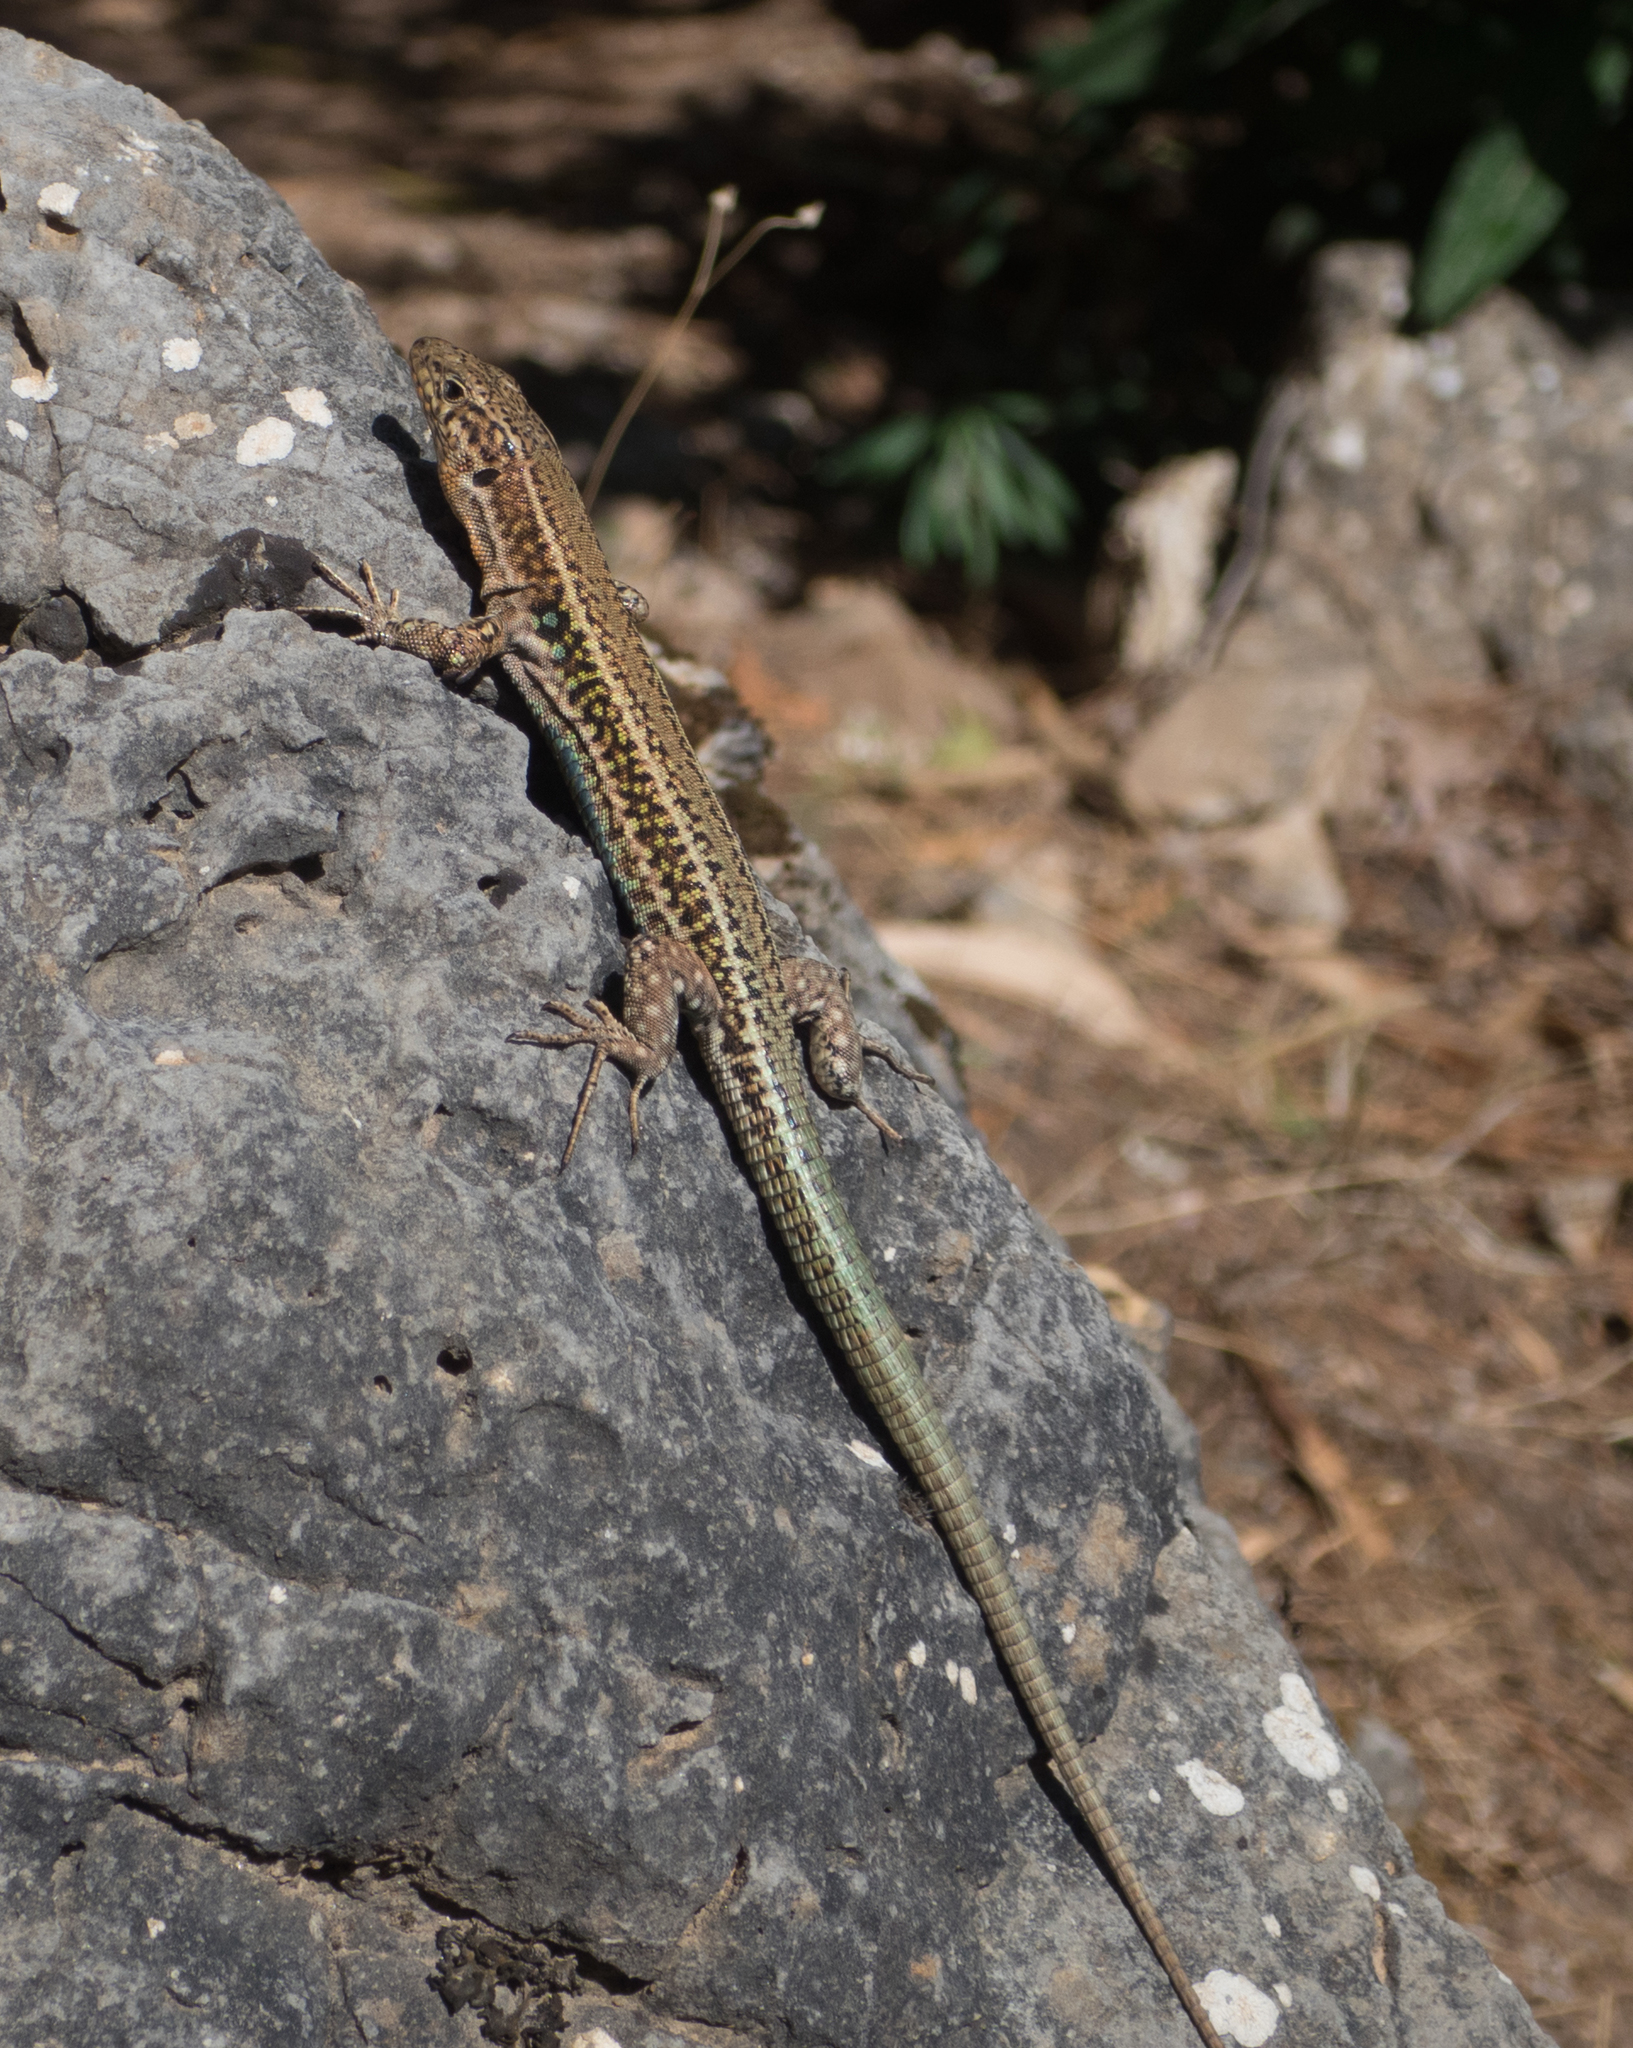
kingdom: Animalia
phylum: Chordata
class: Squamata
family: Lacertidae
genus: Podarcis
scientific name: Podarcis cretensis
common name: Cretan wall lizard
